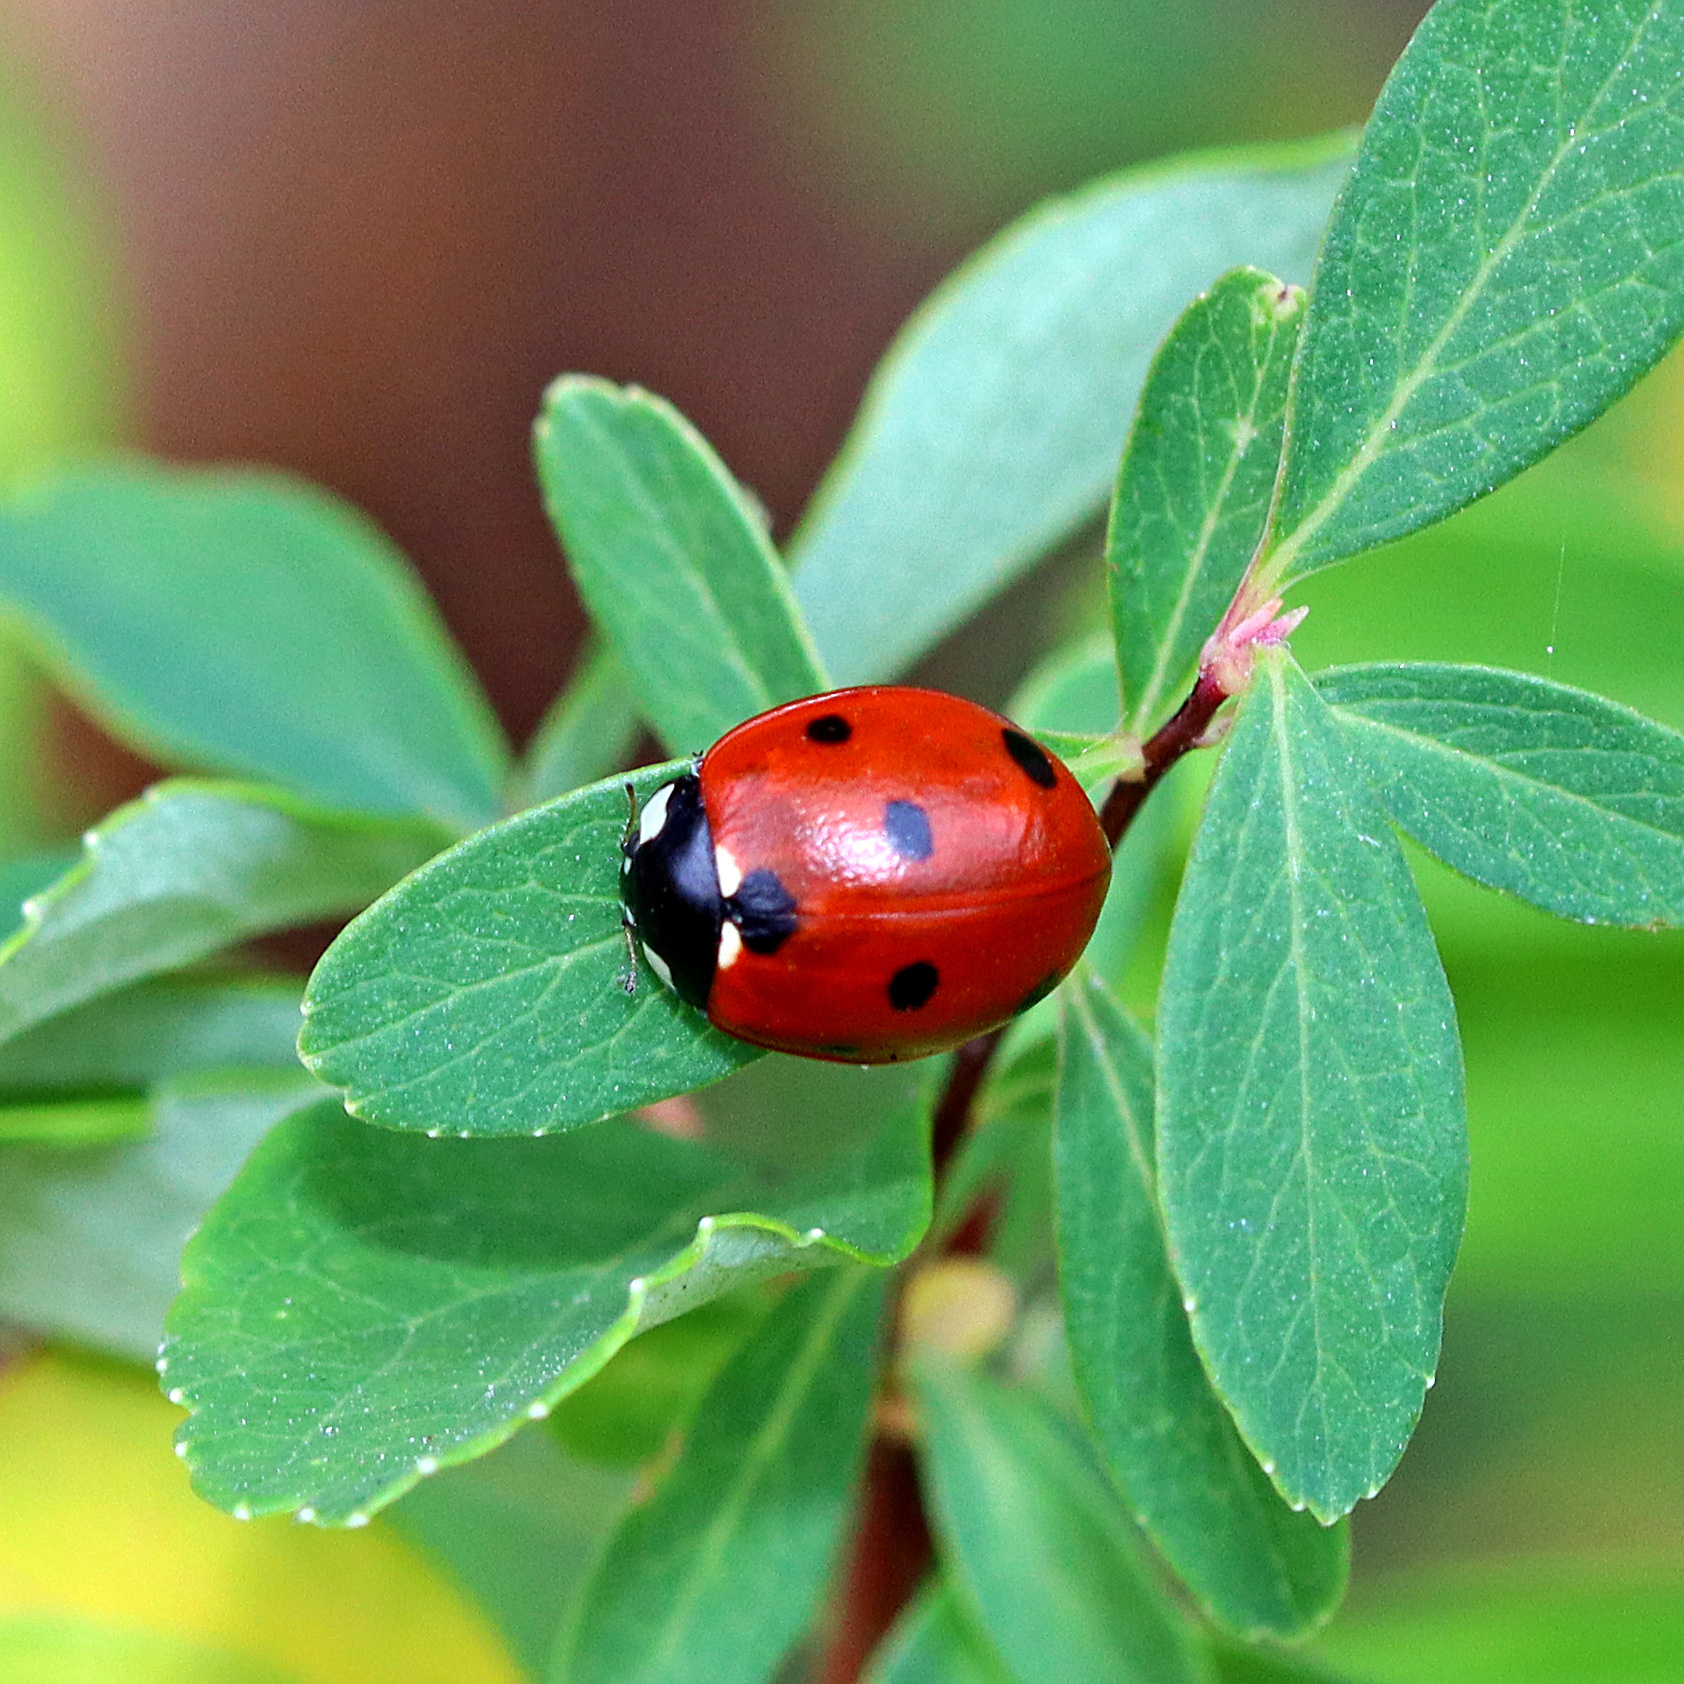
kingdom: Animalia
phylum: Arthropoda
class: Insecta
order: Coleoptera
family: Coccinellidae
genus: Coccinella
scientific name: Coccinella septempunctata
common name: Sevenspotted lady beetle
